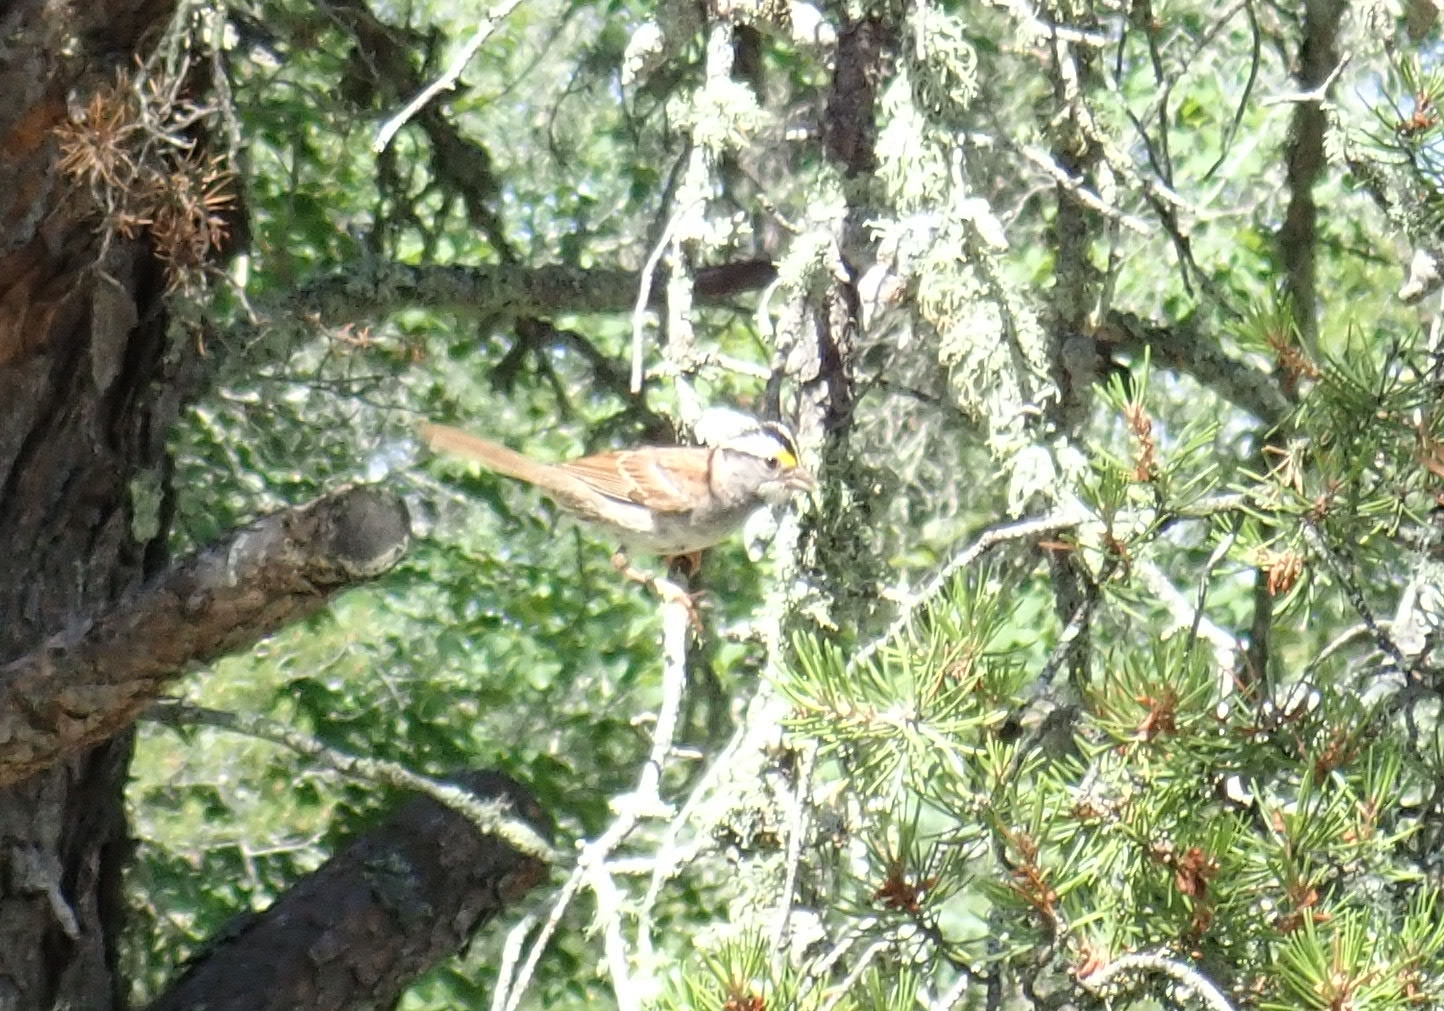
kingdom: Animalia
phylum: Chordata
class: Aves
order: Passeriformes
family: Passerellidae
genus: Zonotrichia
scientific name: Zonotrichia albicollis
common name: White-throated sparrow
